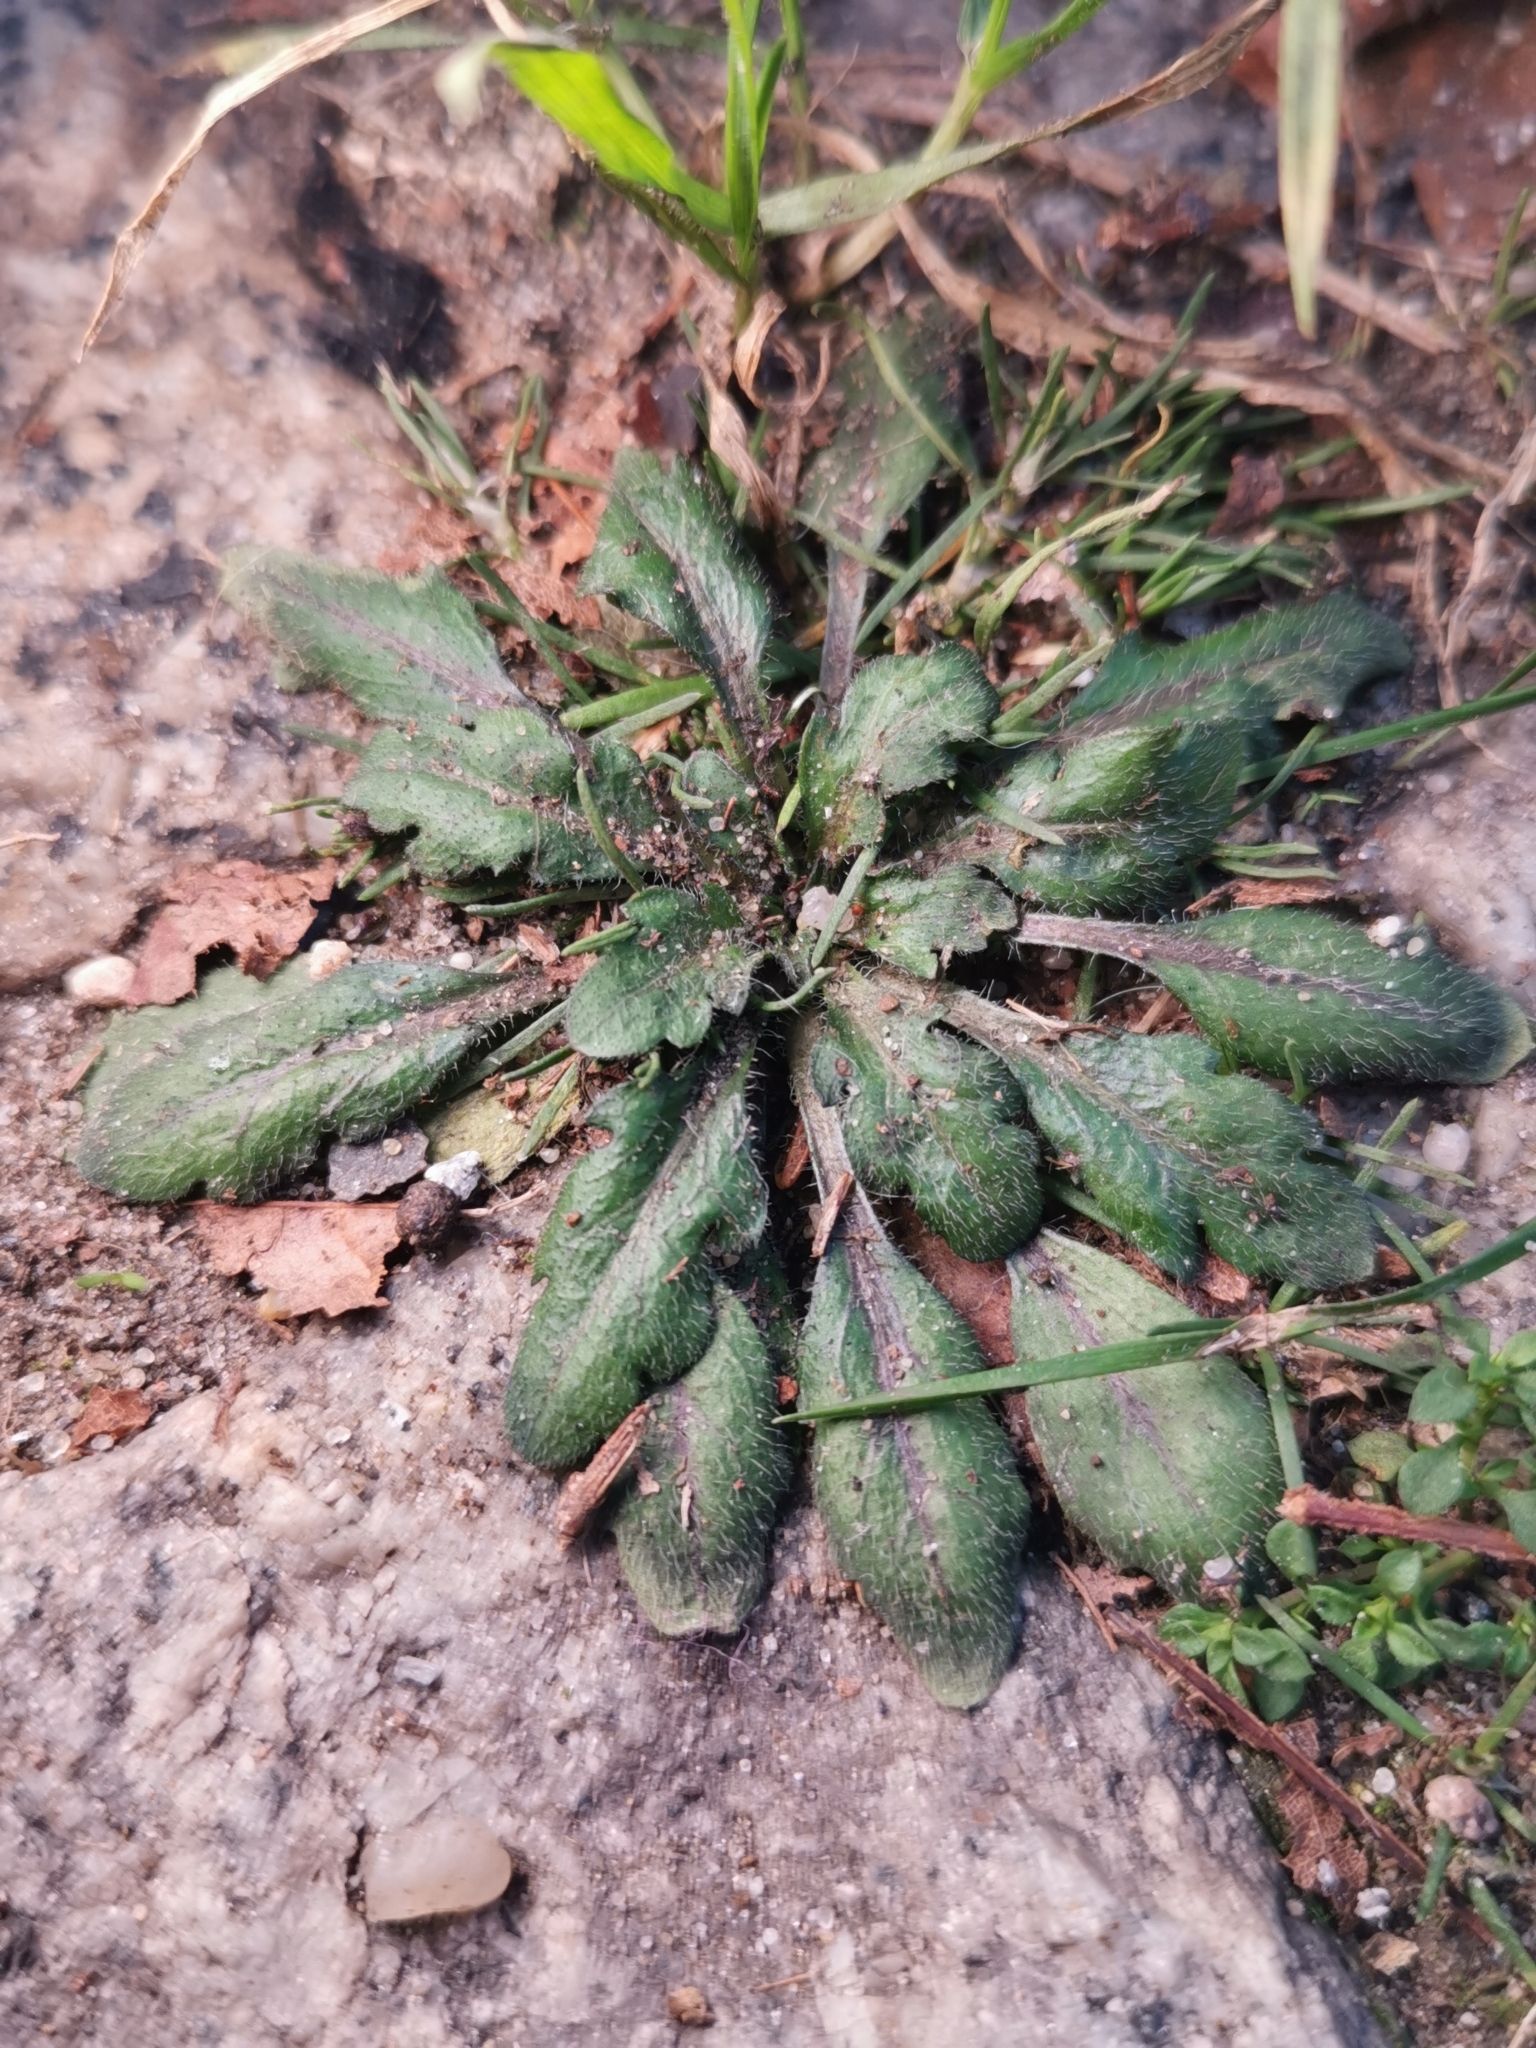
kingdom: Plantae
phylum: Tracheophyta
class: Magnoliopsida
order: Asterales
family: Asteraceae
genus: Erigeron
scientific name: Erigeron canadensis
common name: Canadian fleabane
